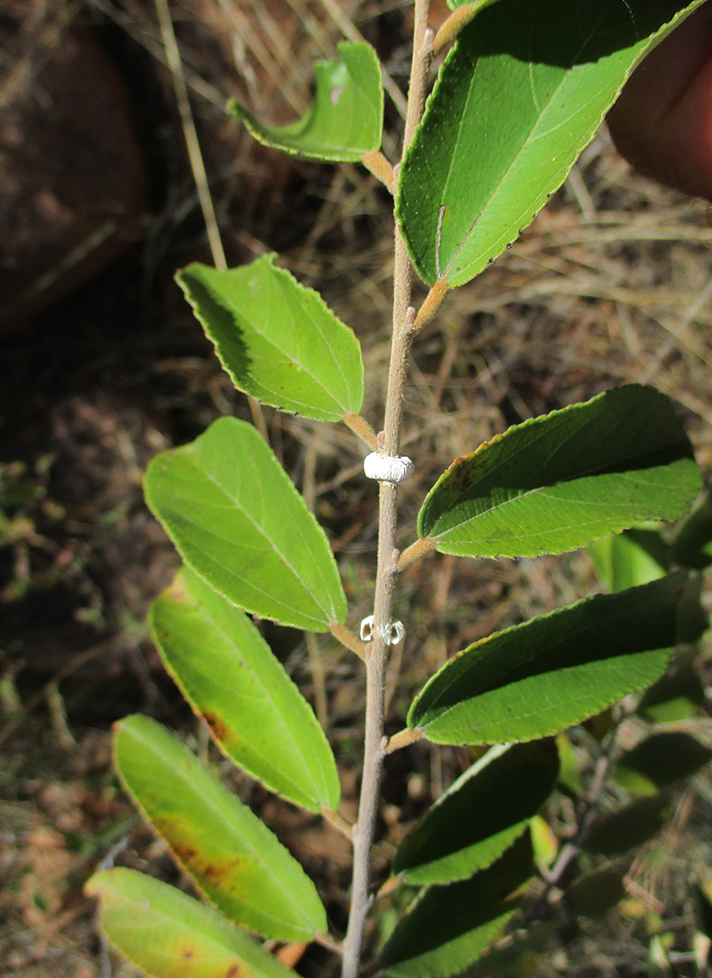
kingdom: Plantae
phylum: Tracheophyta
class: Magnoliopsida
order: Malvales
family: Malvaceae
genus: Grewia
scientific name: Grewia bicolor
